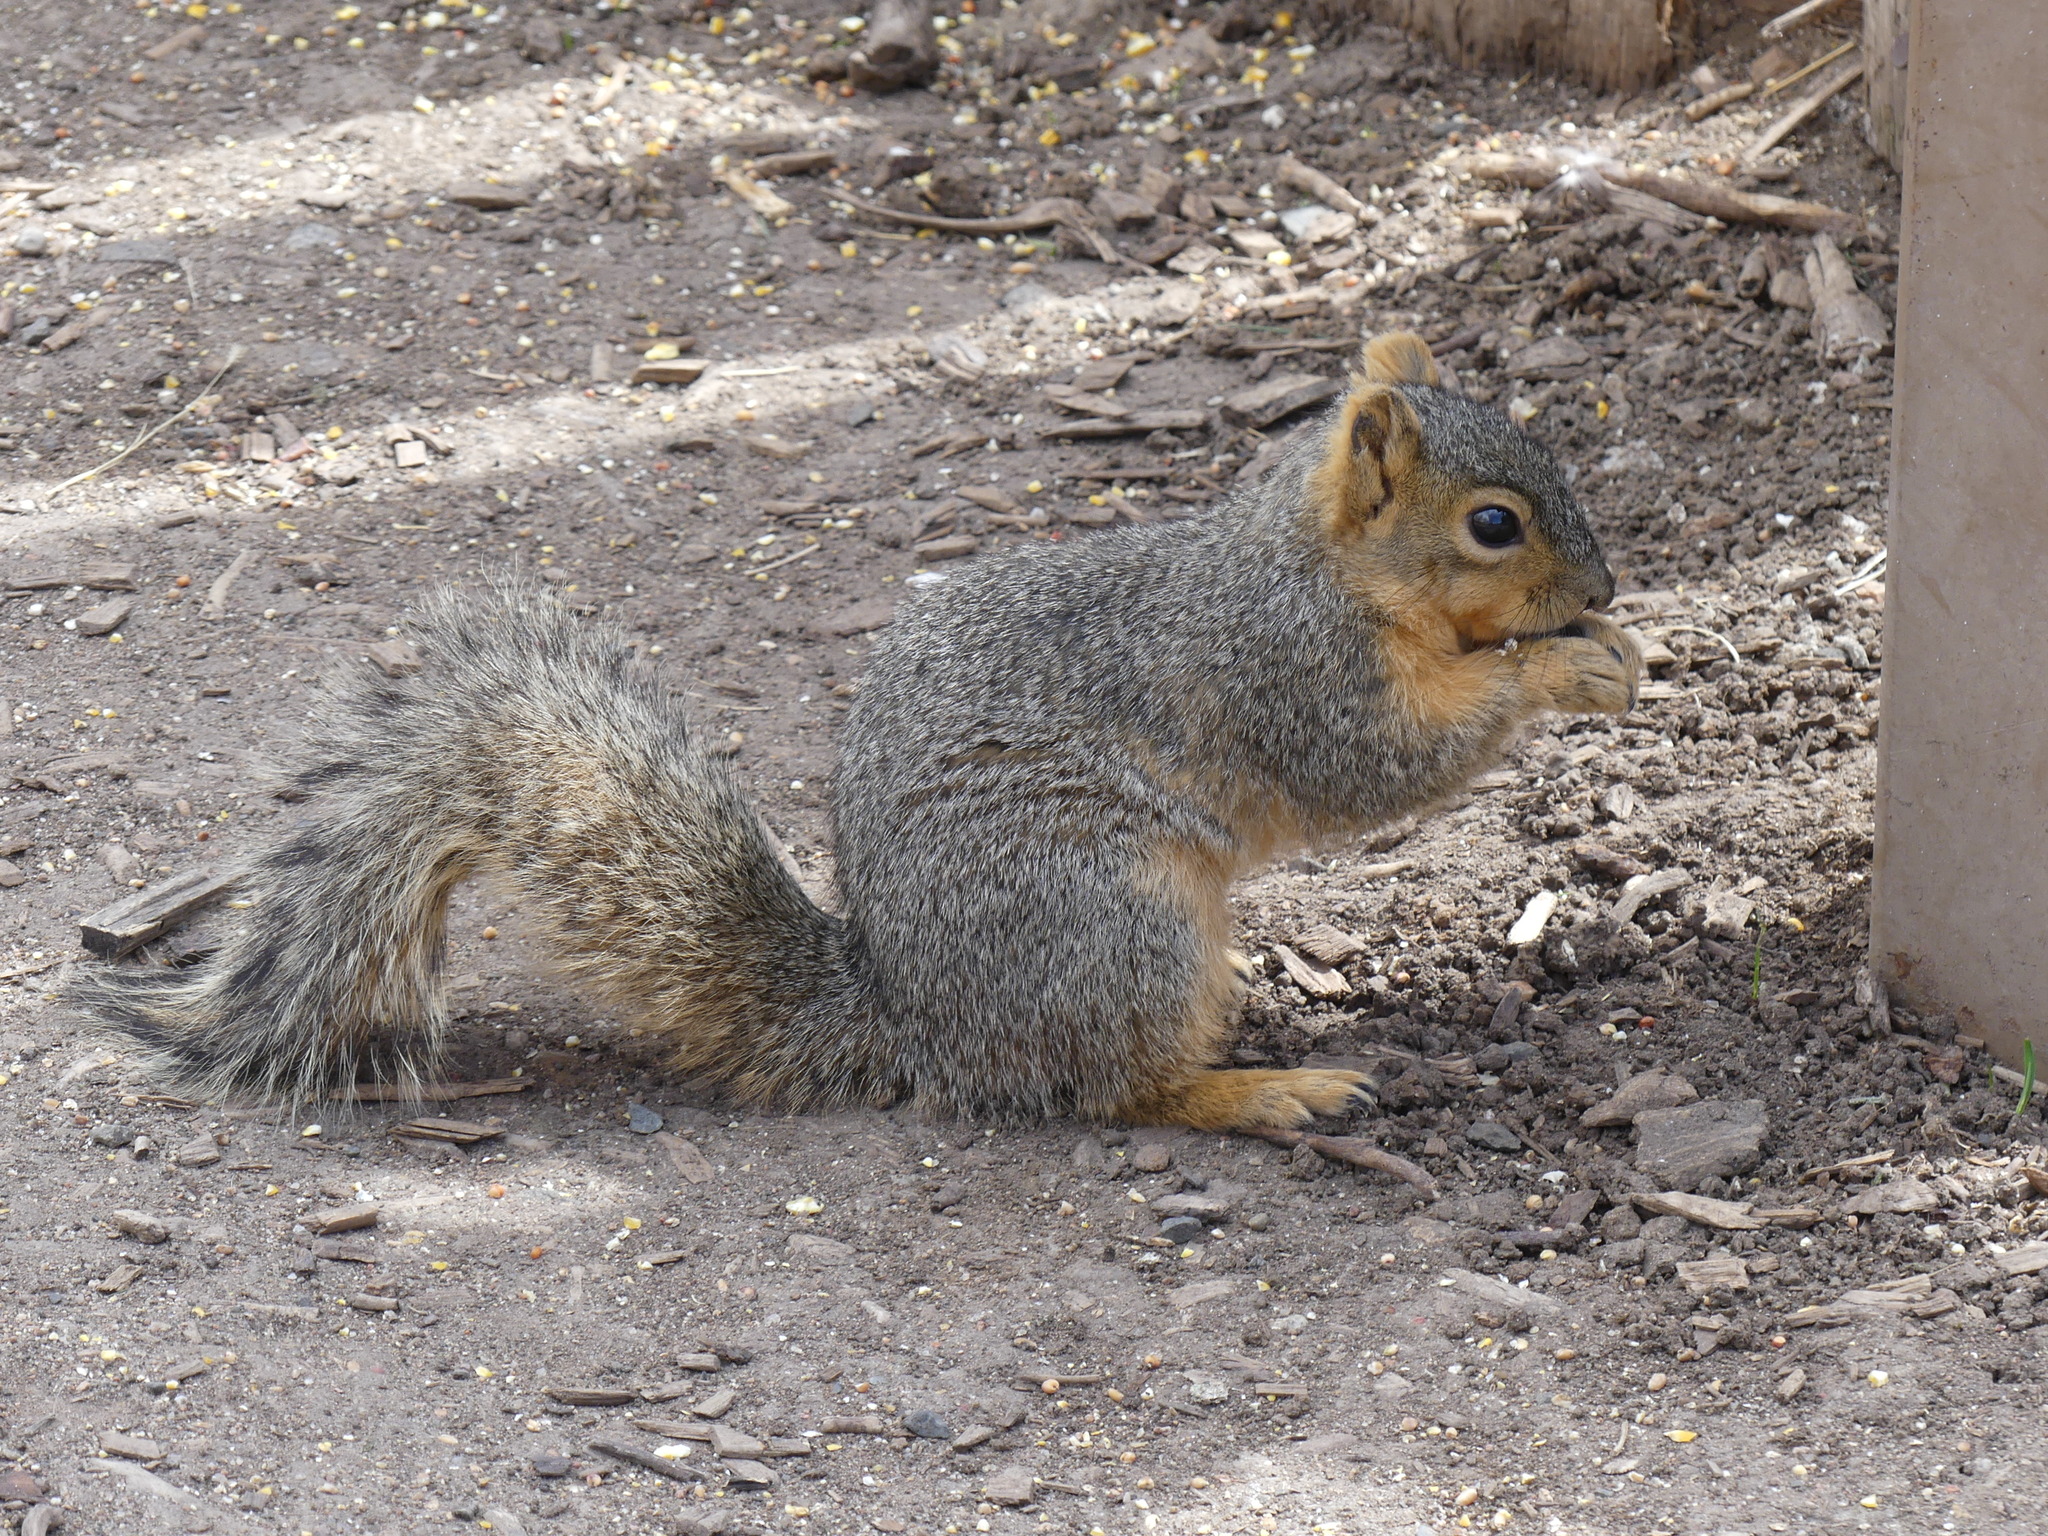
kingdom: Animalia
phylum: Chordata
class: Mammalia
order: Rodentia
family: Sciuridae
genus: Sciurus
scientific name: Sciurus niger
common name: Fox squirrel
